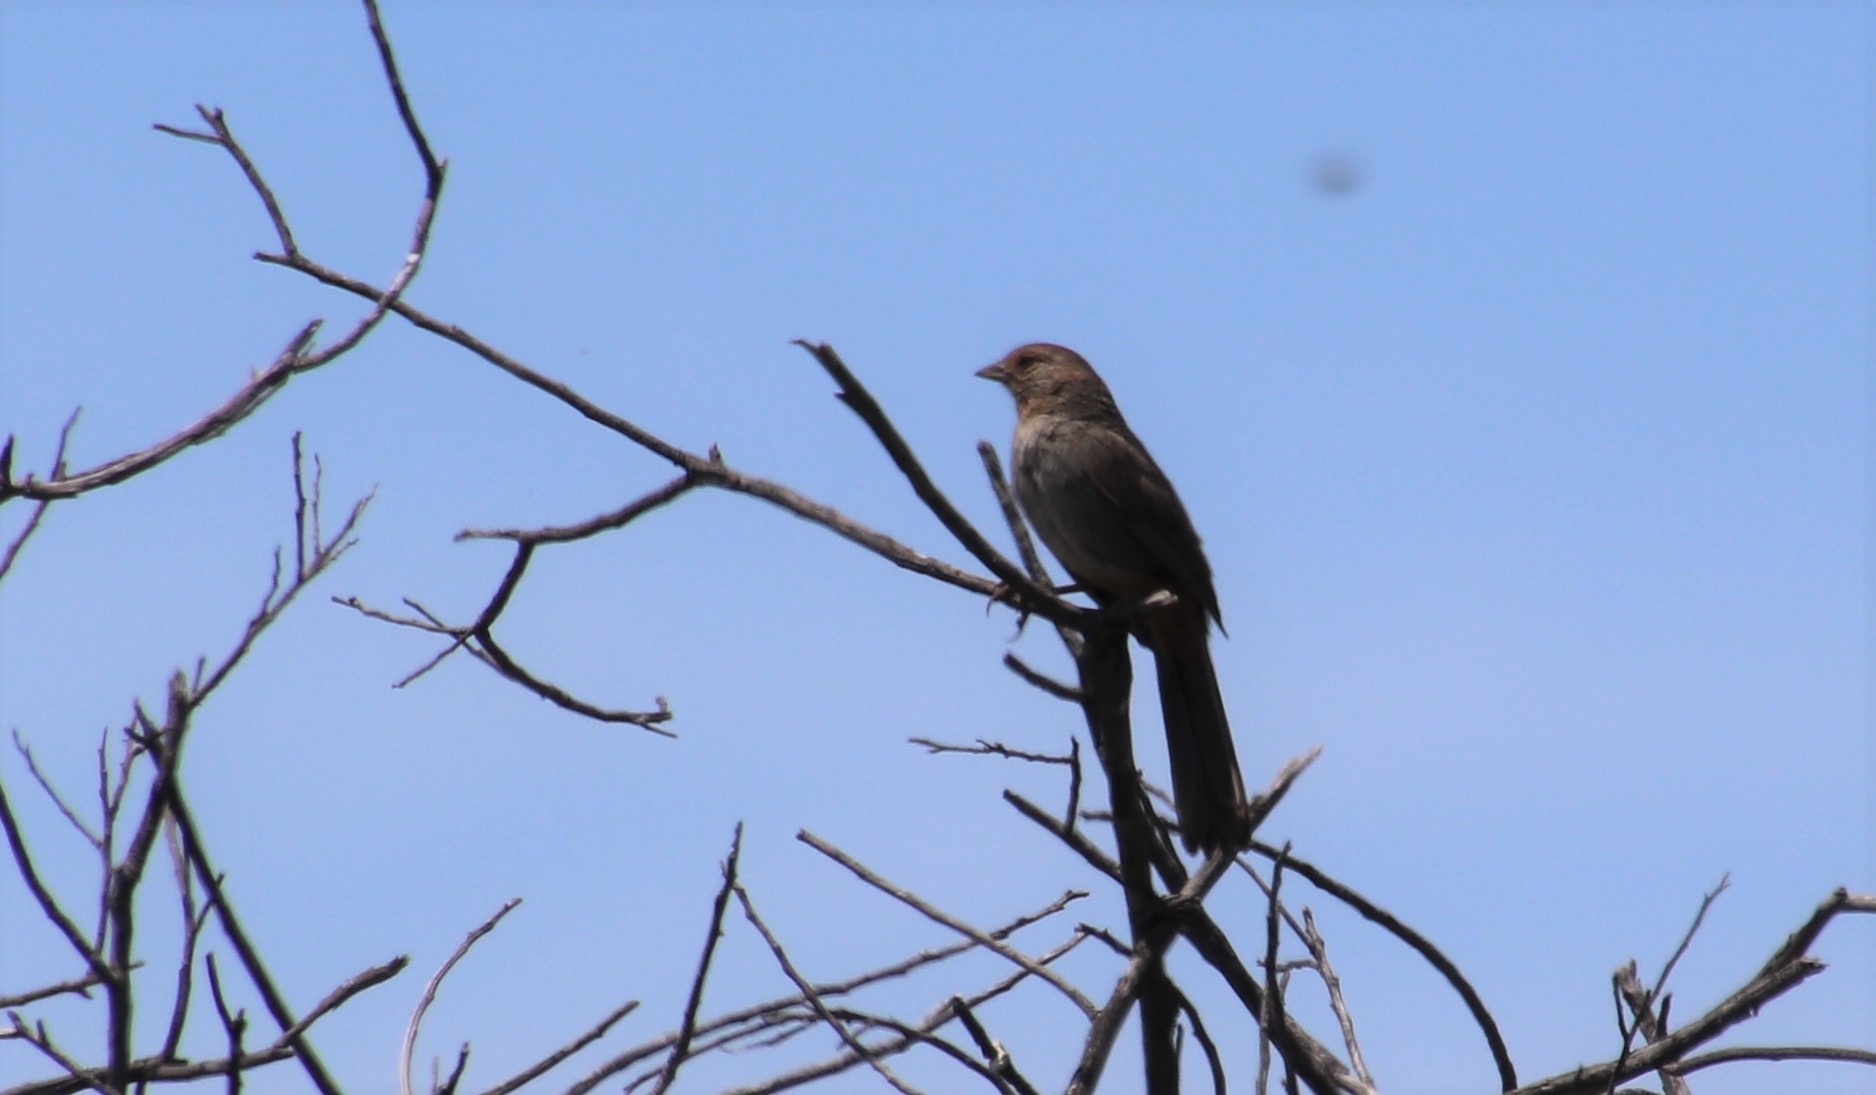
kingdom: Animalia
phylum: Chordata
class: Aves
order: Passeriformes
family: Passerellidae
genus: Melozone
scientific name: Melozone crissalis
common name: California towhee
